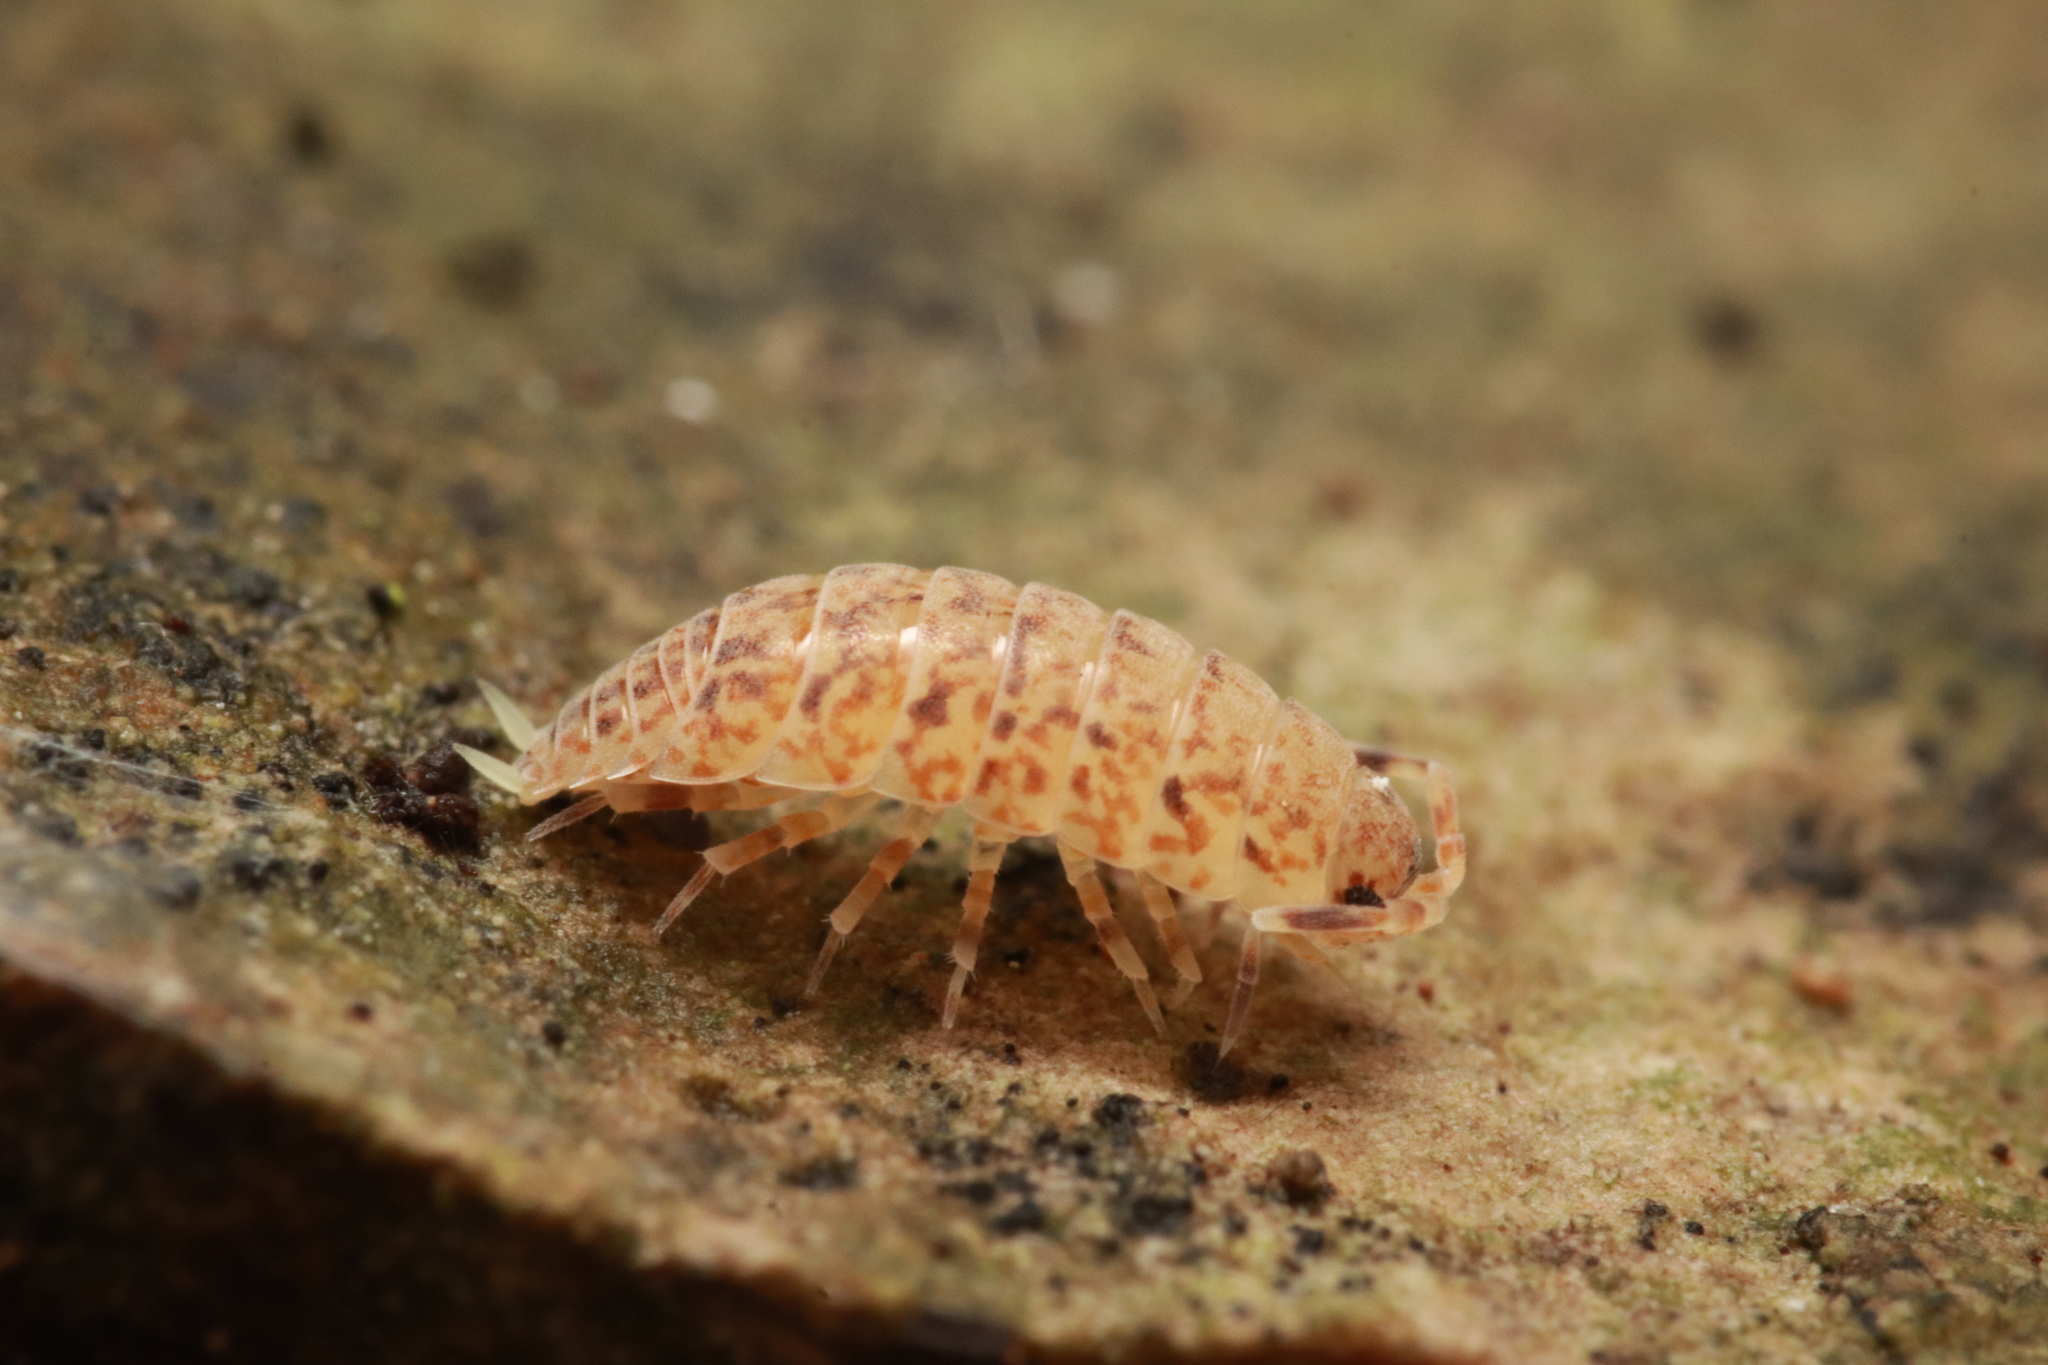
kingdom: Animalia
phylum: Arthropoda
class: Malacostraca
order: Isopoda
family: Porcellionidae
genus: Caeroplastes
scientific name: Caeroplastes porphyrivagus
